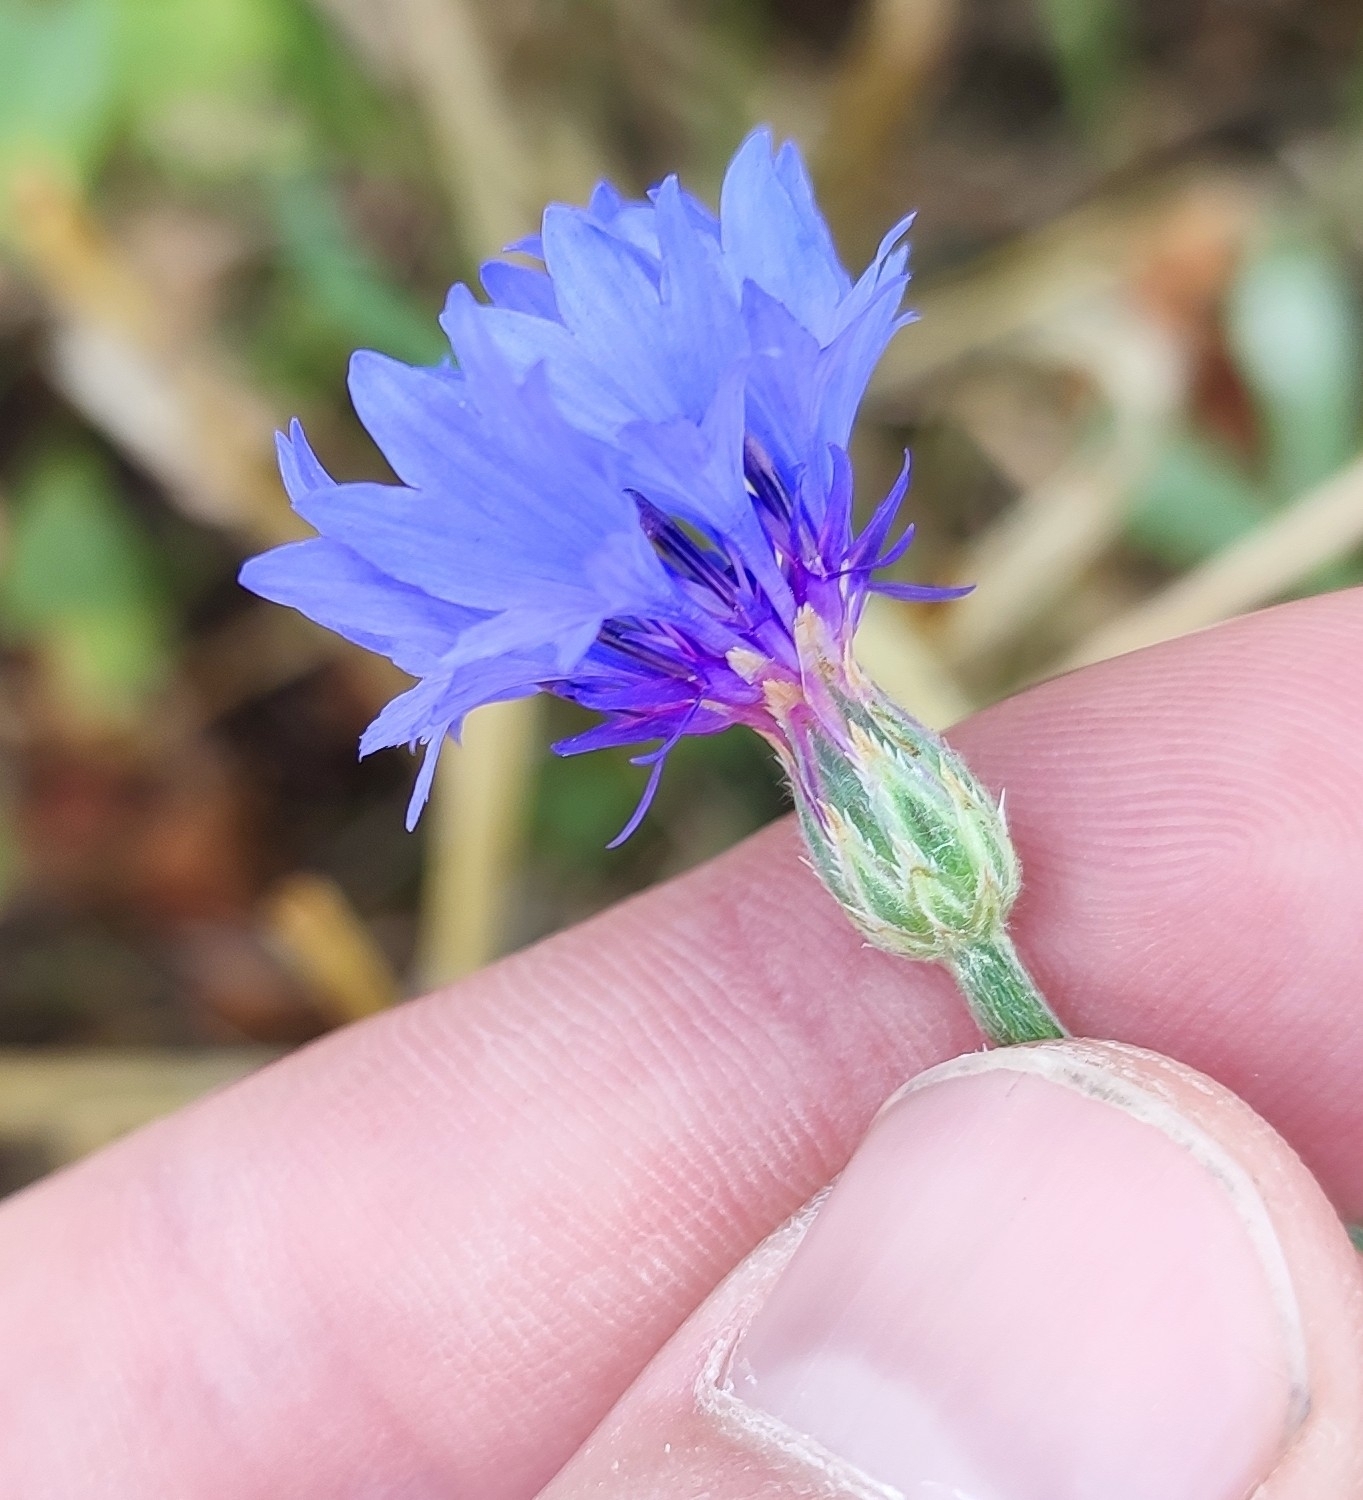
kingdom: Plantae
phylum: Tracheophyta
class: Magnoliopsida
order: Asterales
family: Asteraceae
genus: Centaurea
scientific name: Centaurea cyanus
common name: Cornflower
